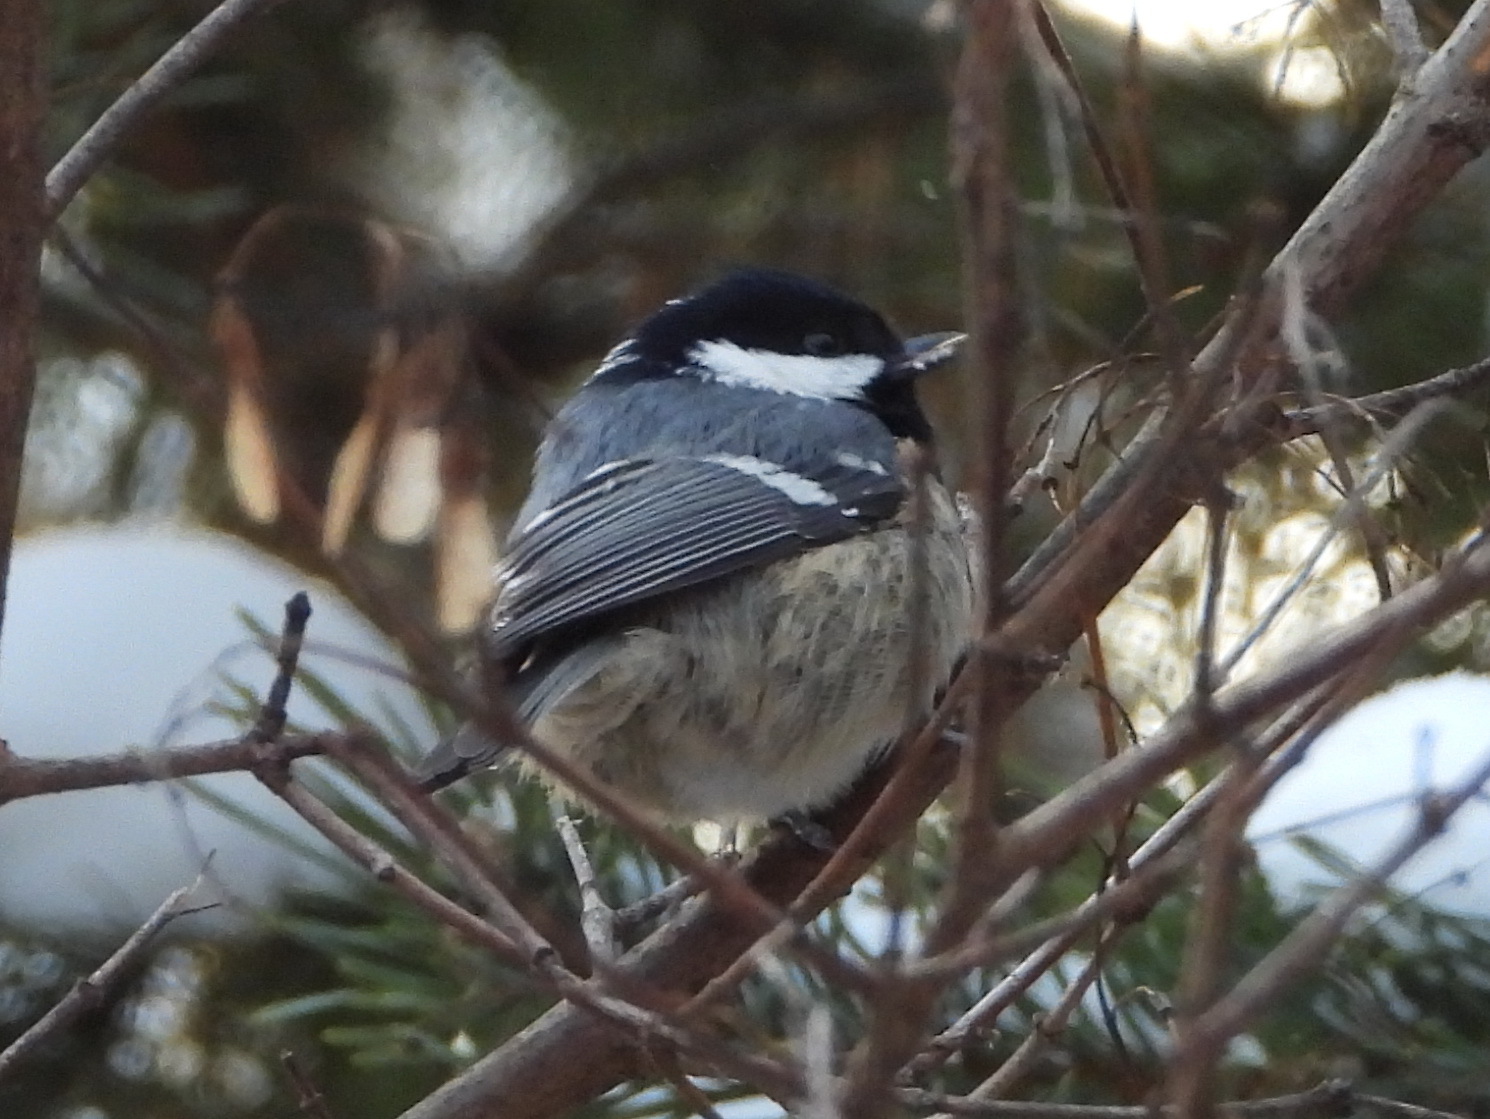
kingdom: Animalia
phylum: Chordata
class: Aves
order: Passeriformes
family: Paridae
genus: Periparus
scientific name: Periparus ater
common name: Coal tit
